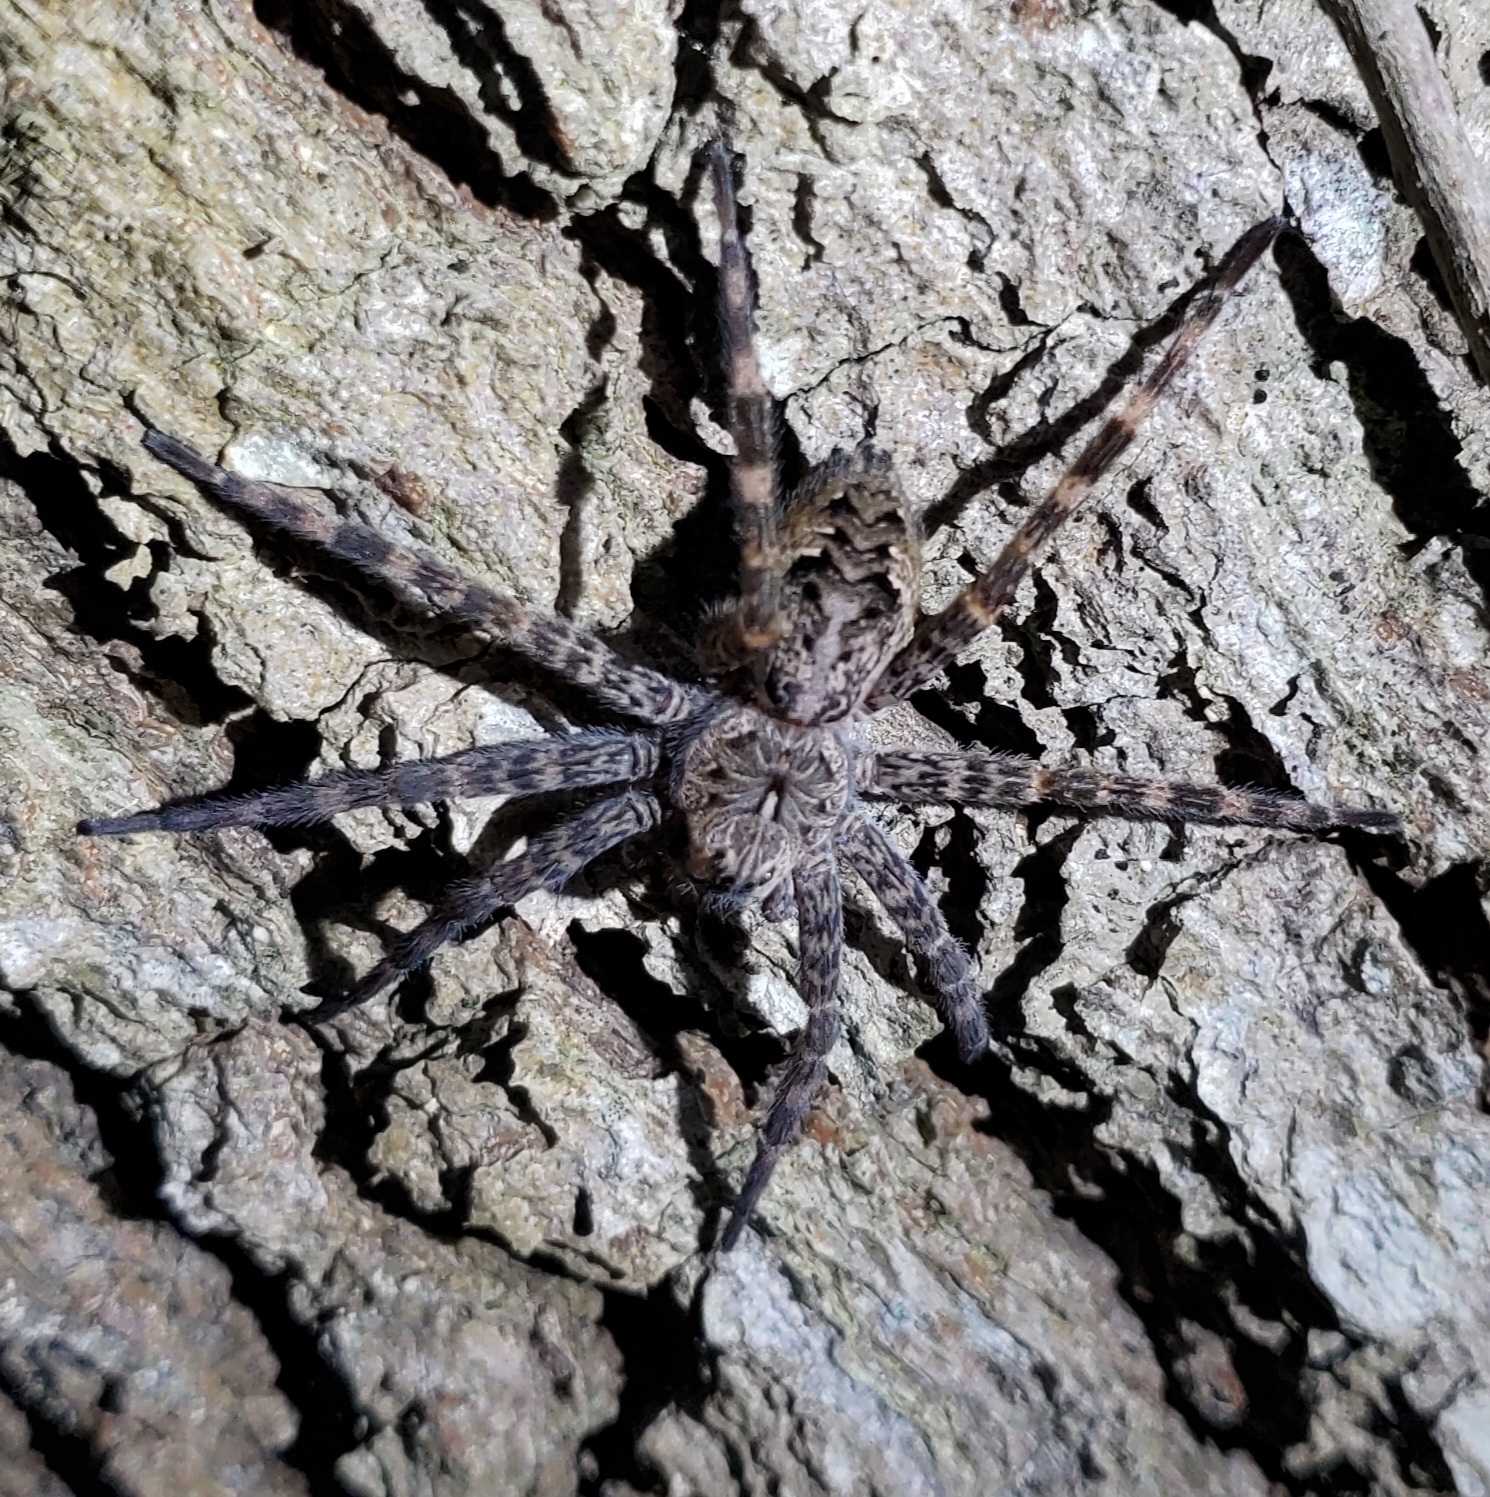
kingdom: Animalia
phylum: Arthropoda
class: Arachnida
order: Araneae
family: Pisauridae
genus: Dolomedes
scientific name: Dolomedes tenebrosus
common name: Dark fishing spider
